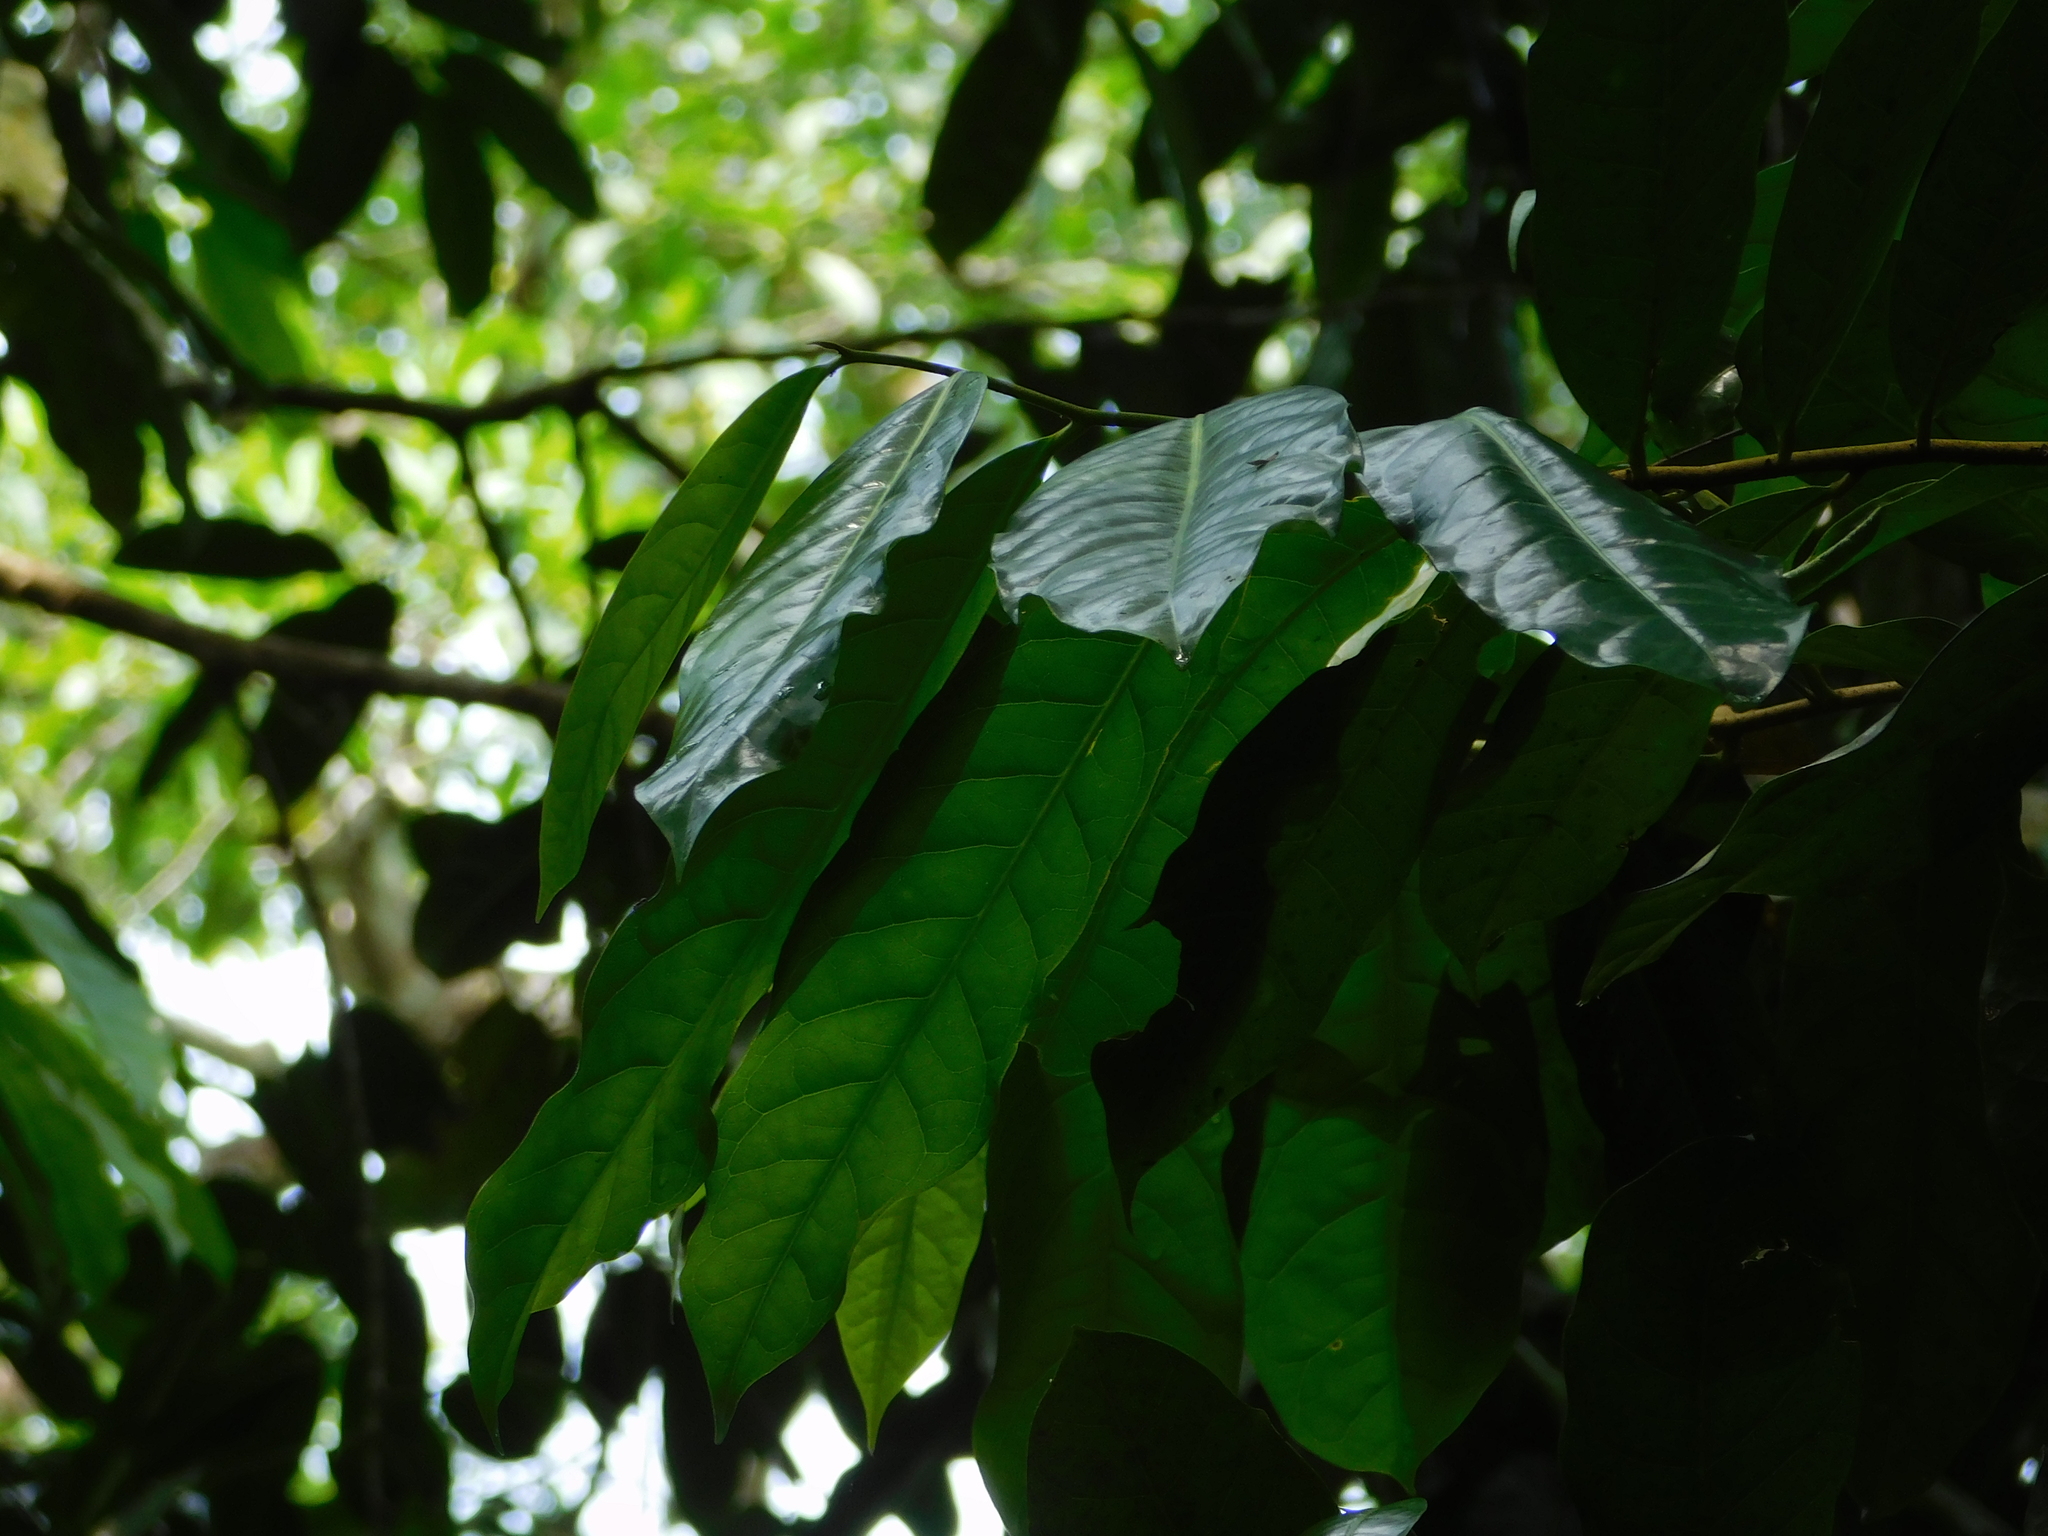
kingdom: Plantae
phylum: Tracheophyta
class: Magnoliopsida
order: Magnoliales
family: Annonaceae
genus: Cymbopetalum
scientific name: Cymbopetalum baillonii
